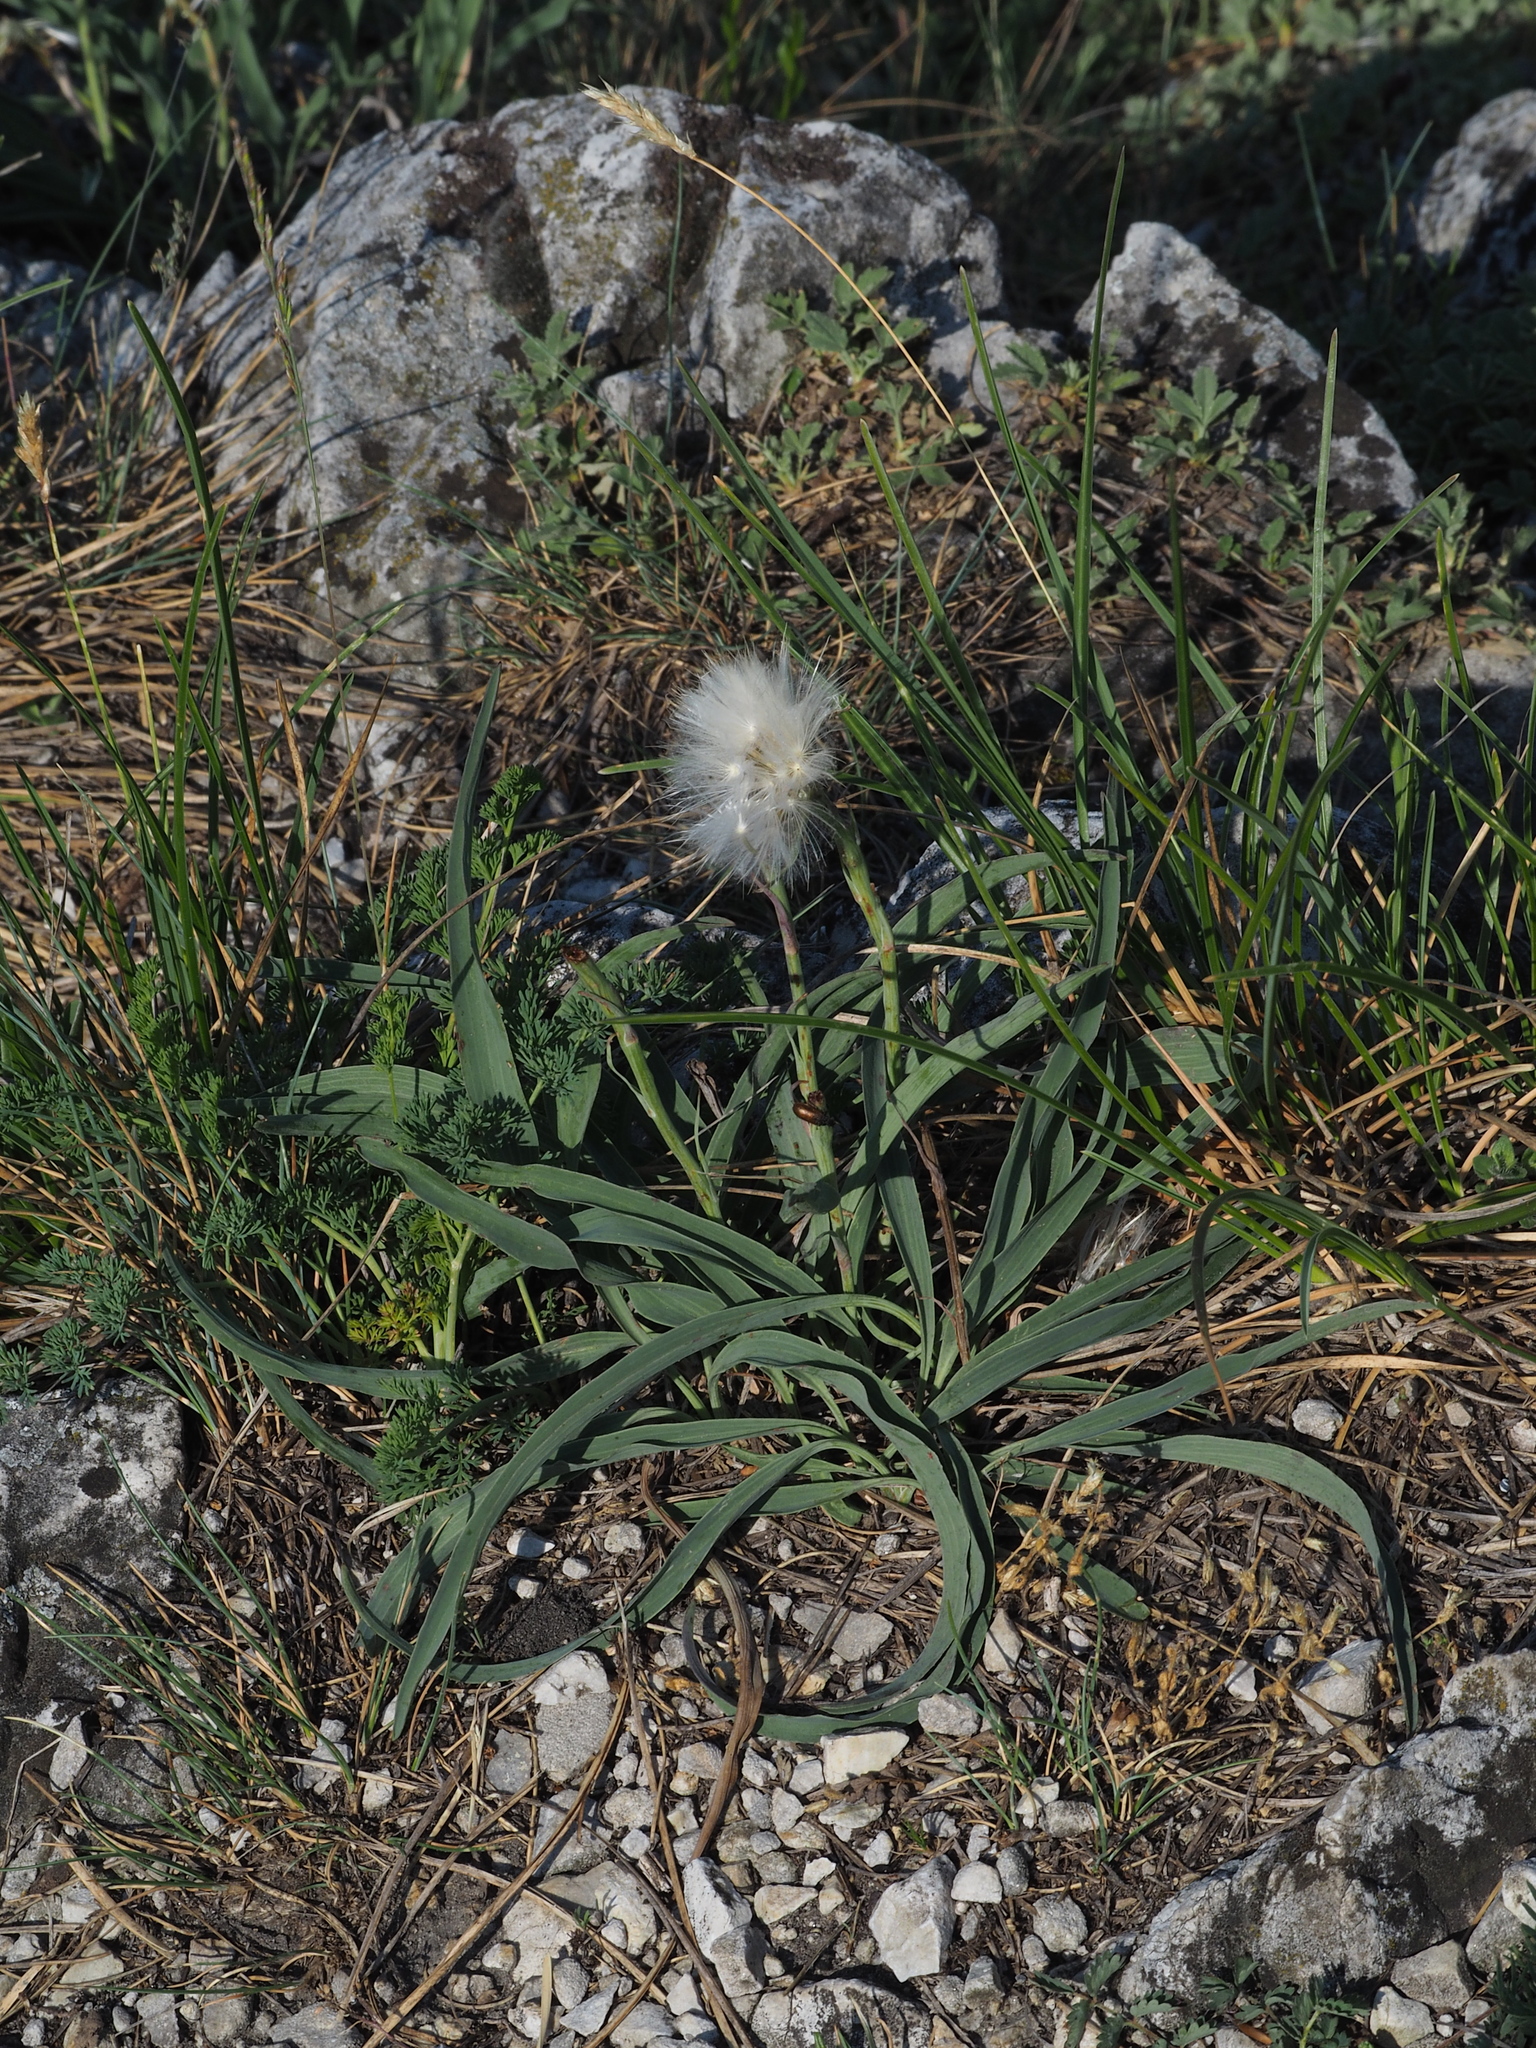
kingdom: Plantae
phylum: Tracheophyta
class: Magnoliopsida
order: Asterales
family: Asteraceae
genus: Takhtajaniantha
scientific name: Takhtajaniantha austriaca
